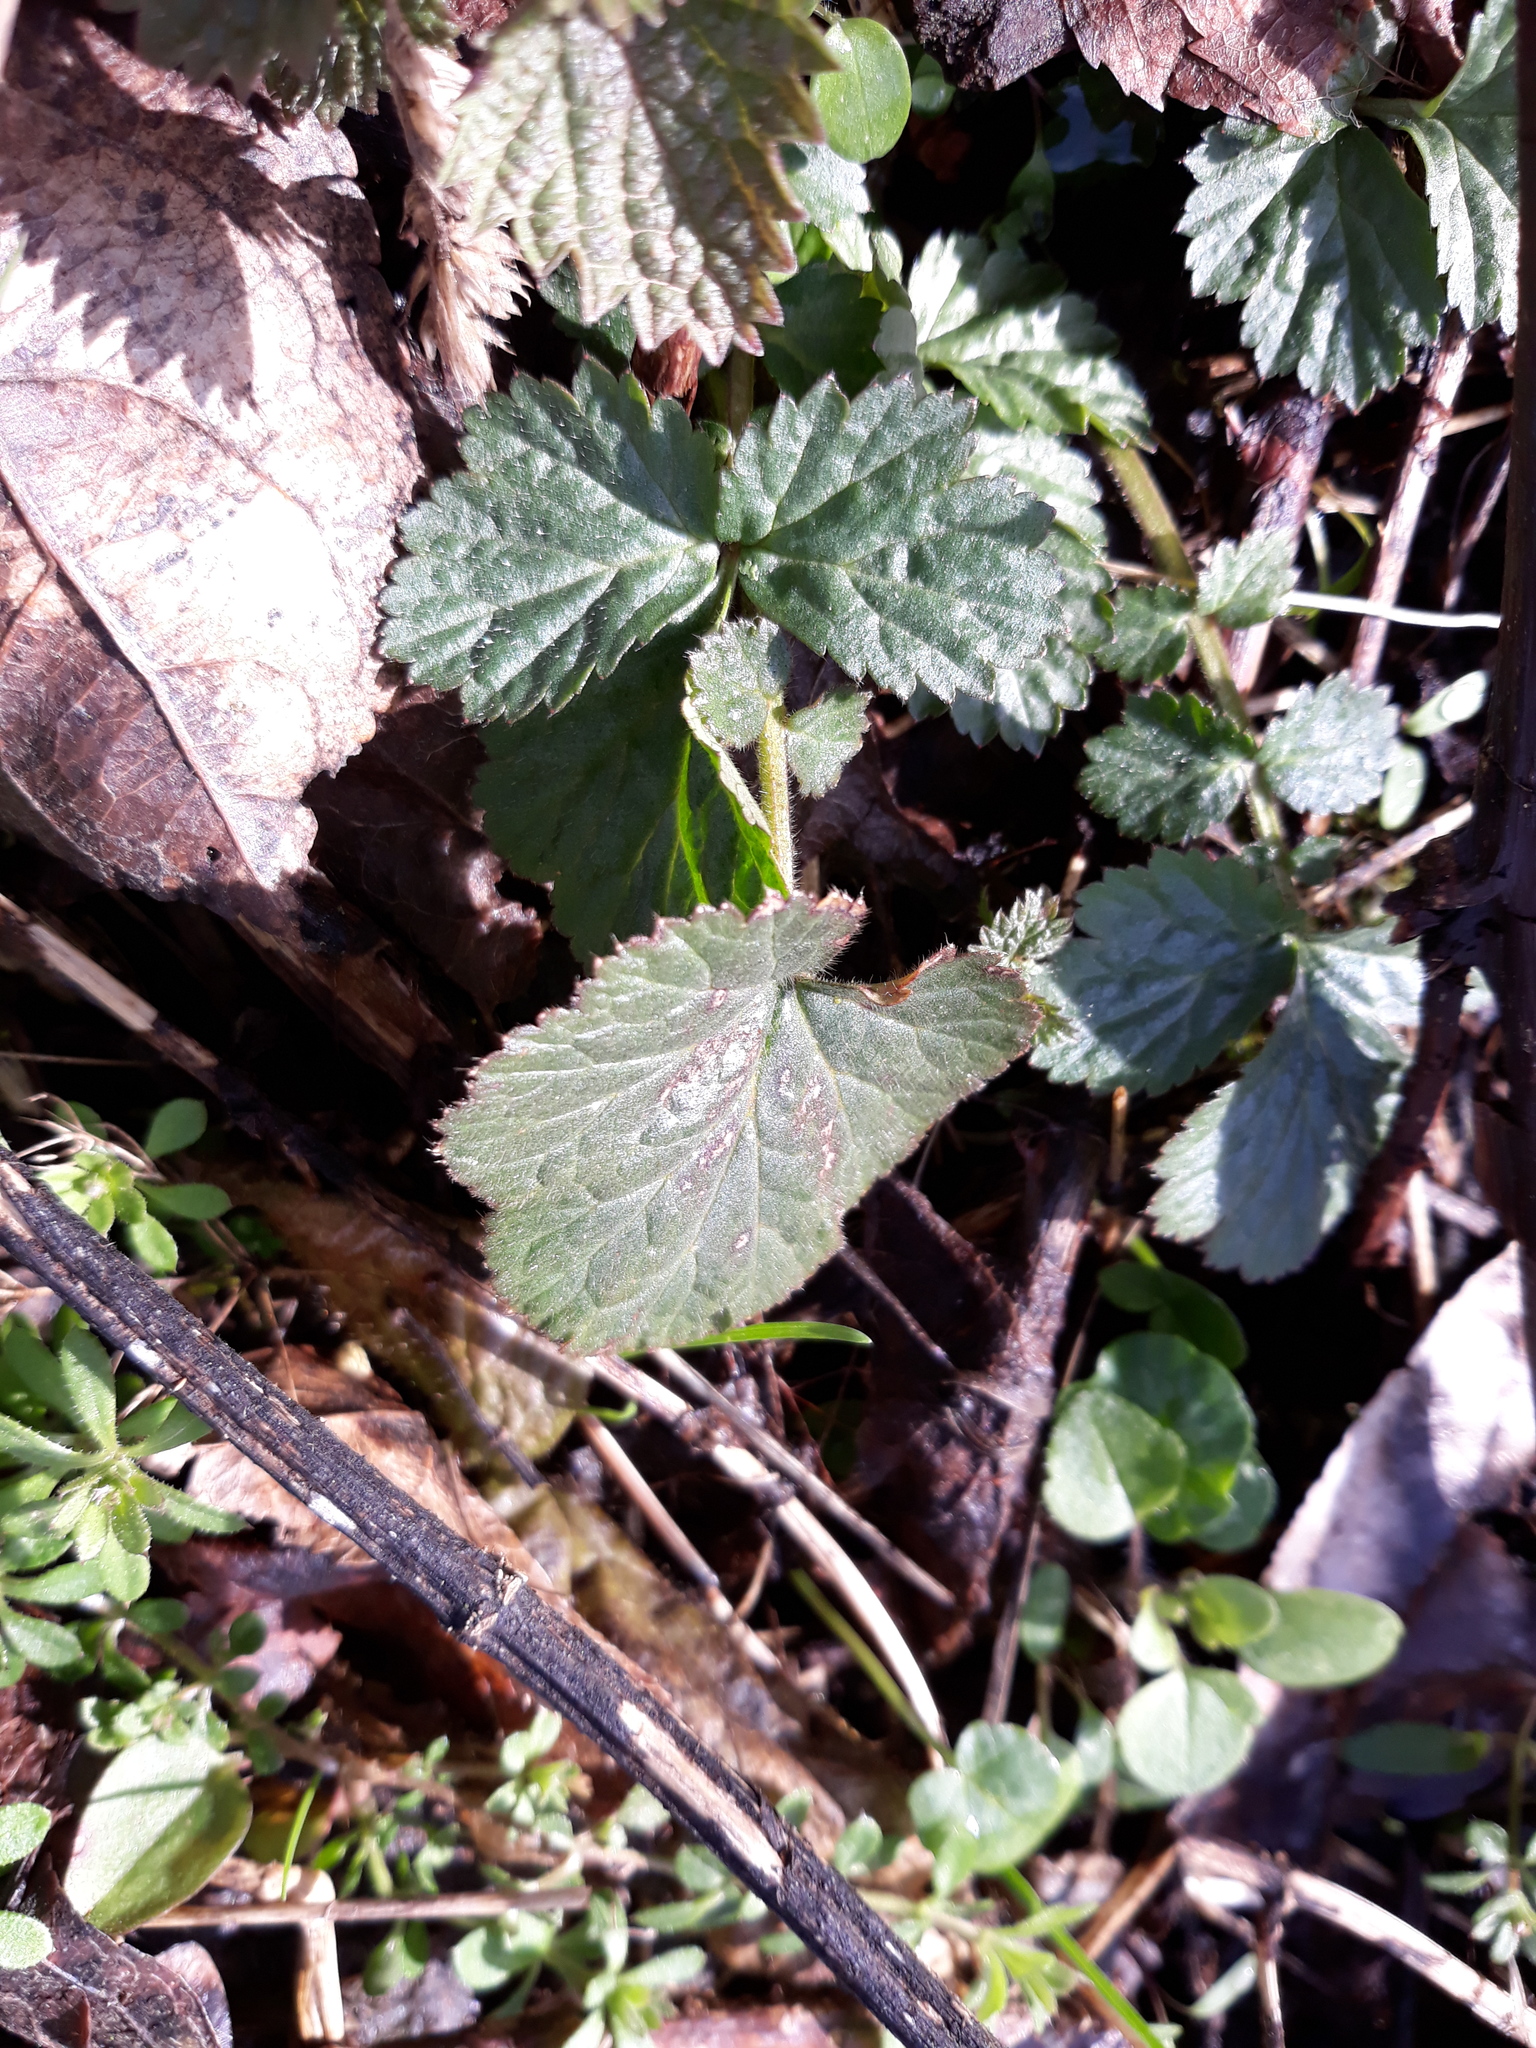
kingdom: Plantae
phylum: Tracheophyta
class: Magnoliopsida
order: Rosales
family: Rosaceae
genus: Geum
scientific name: Geum urbanum
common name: Wood avens
